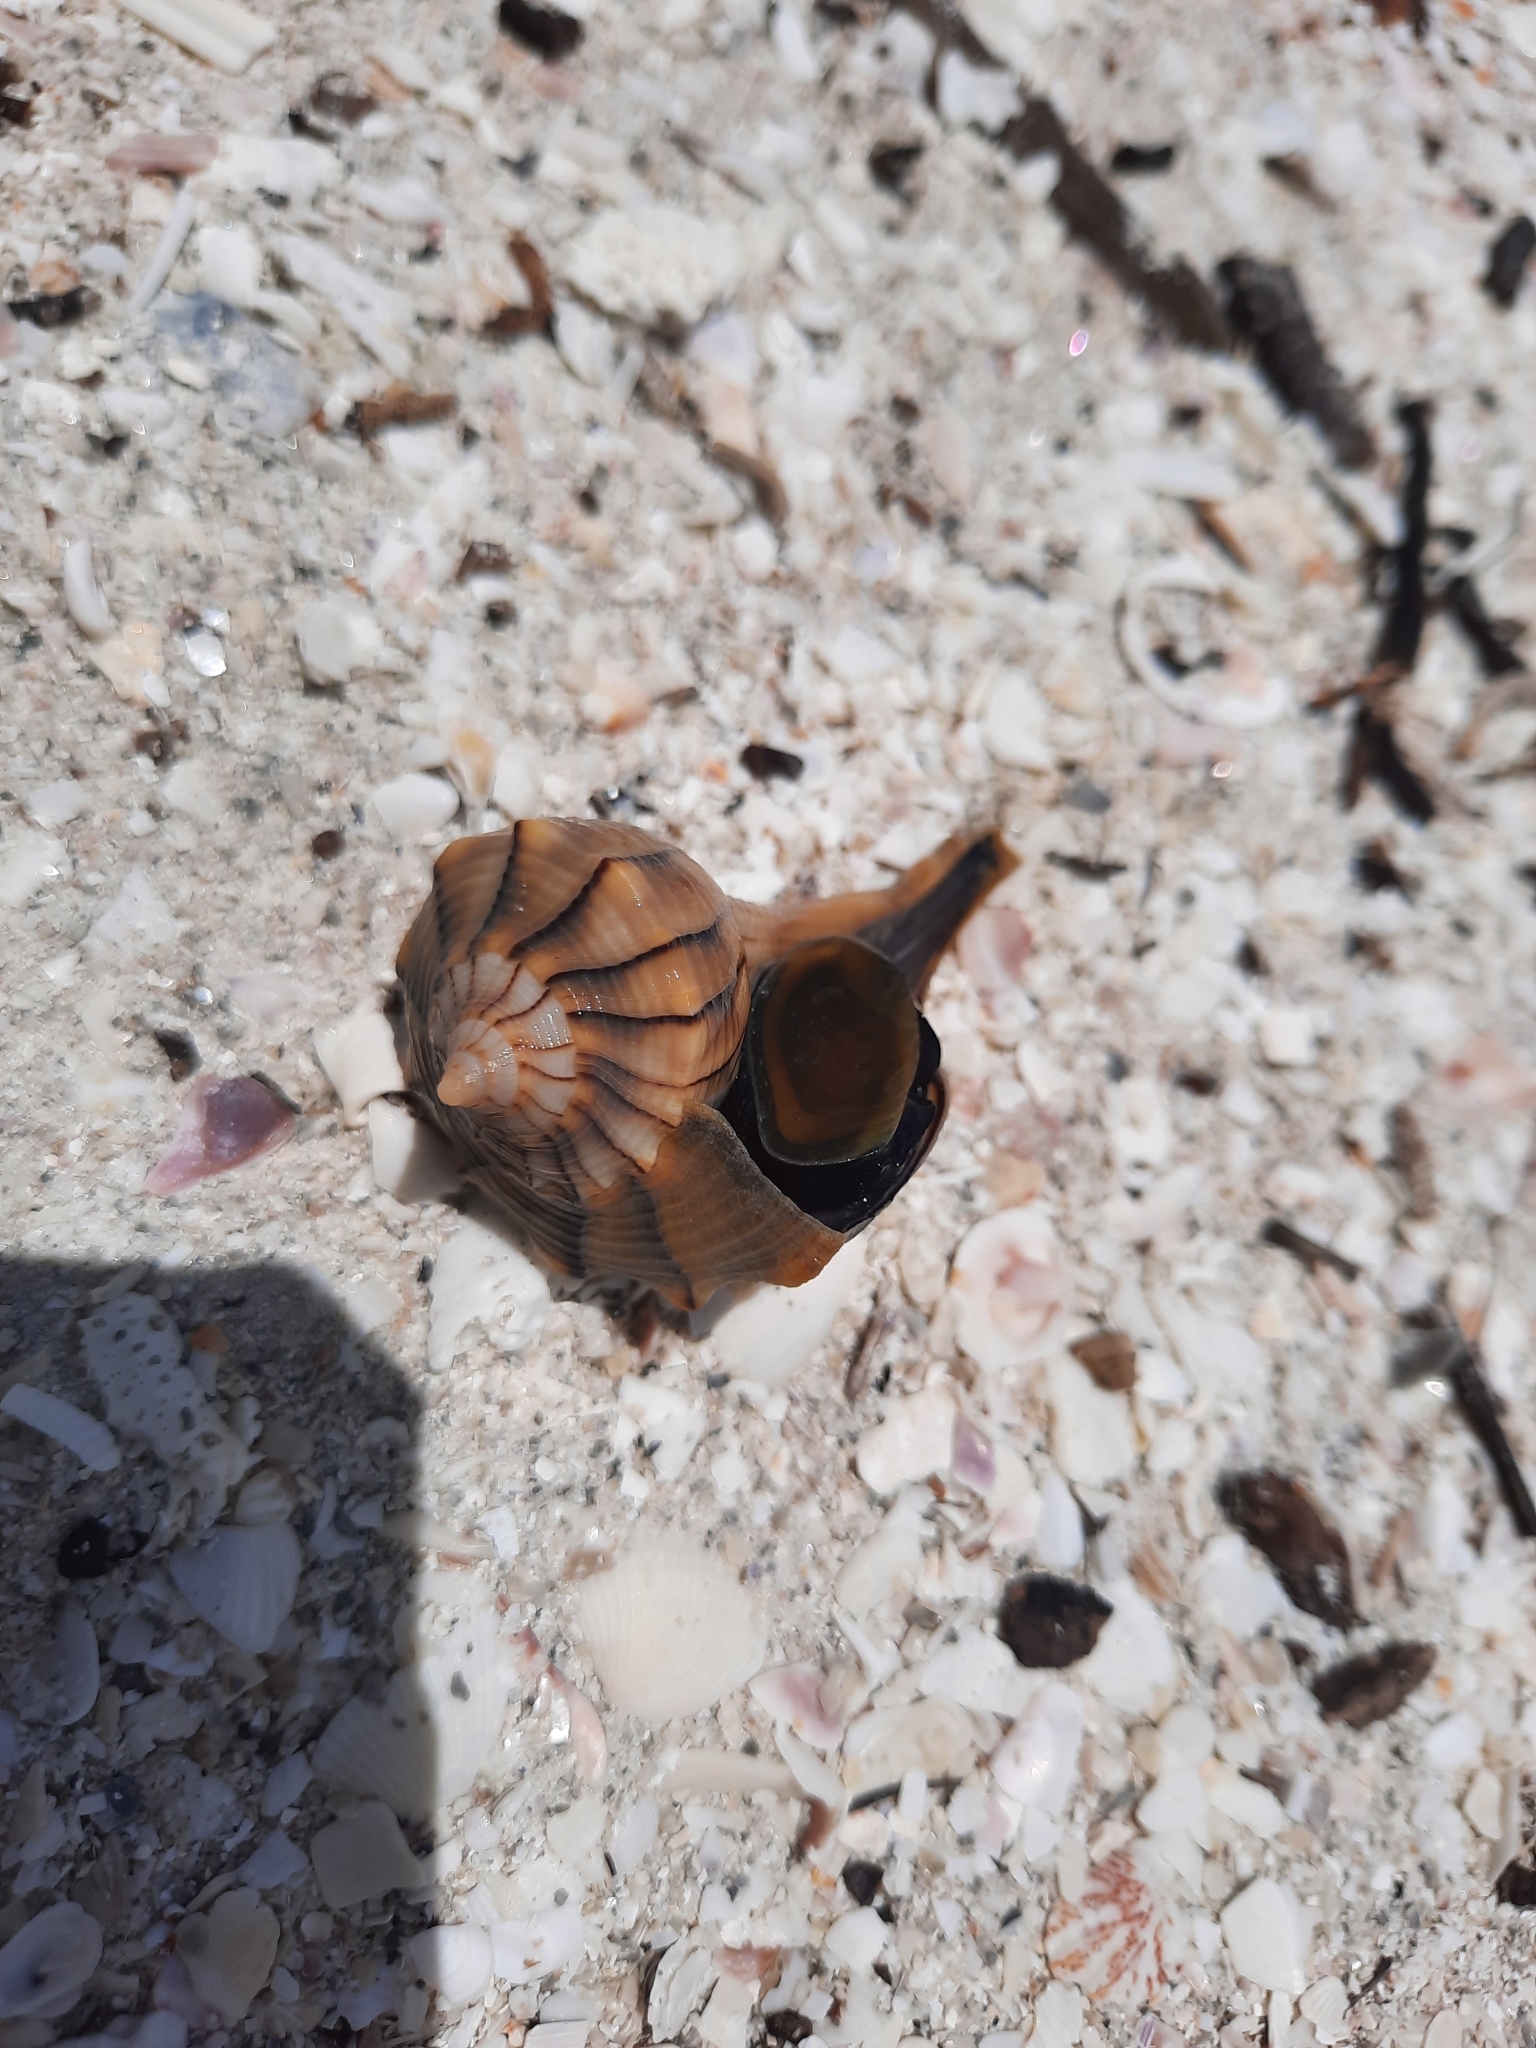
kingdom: Animalia
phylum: Mollusca
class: Gastropoda
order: Neogastropoda
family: Busyconidae
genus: Sinistrofulgur
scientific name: Sinistrofulgur sinistrum
